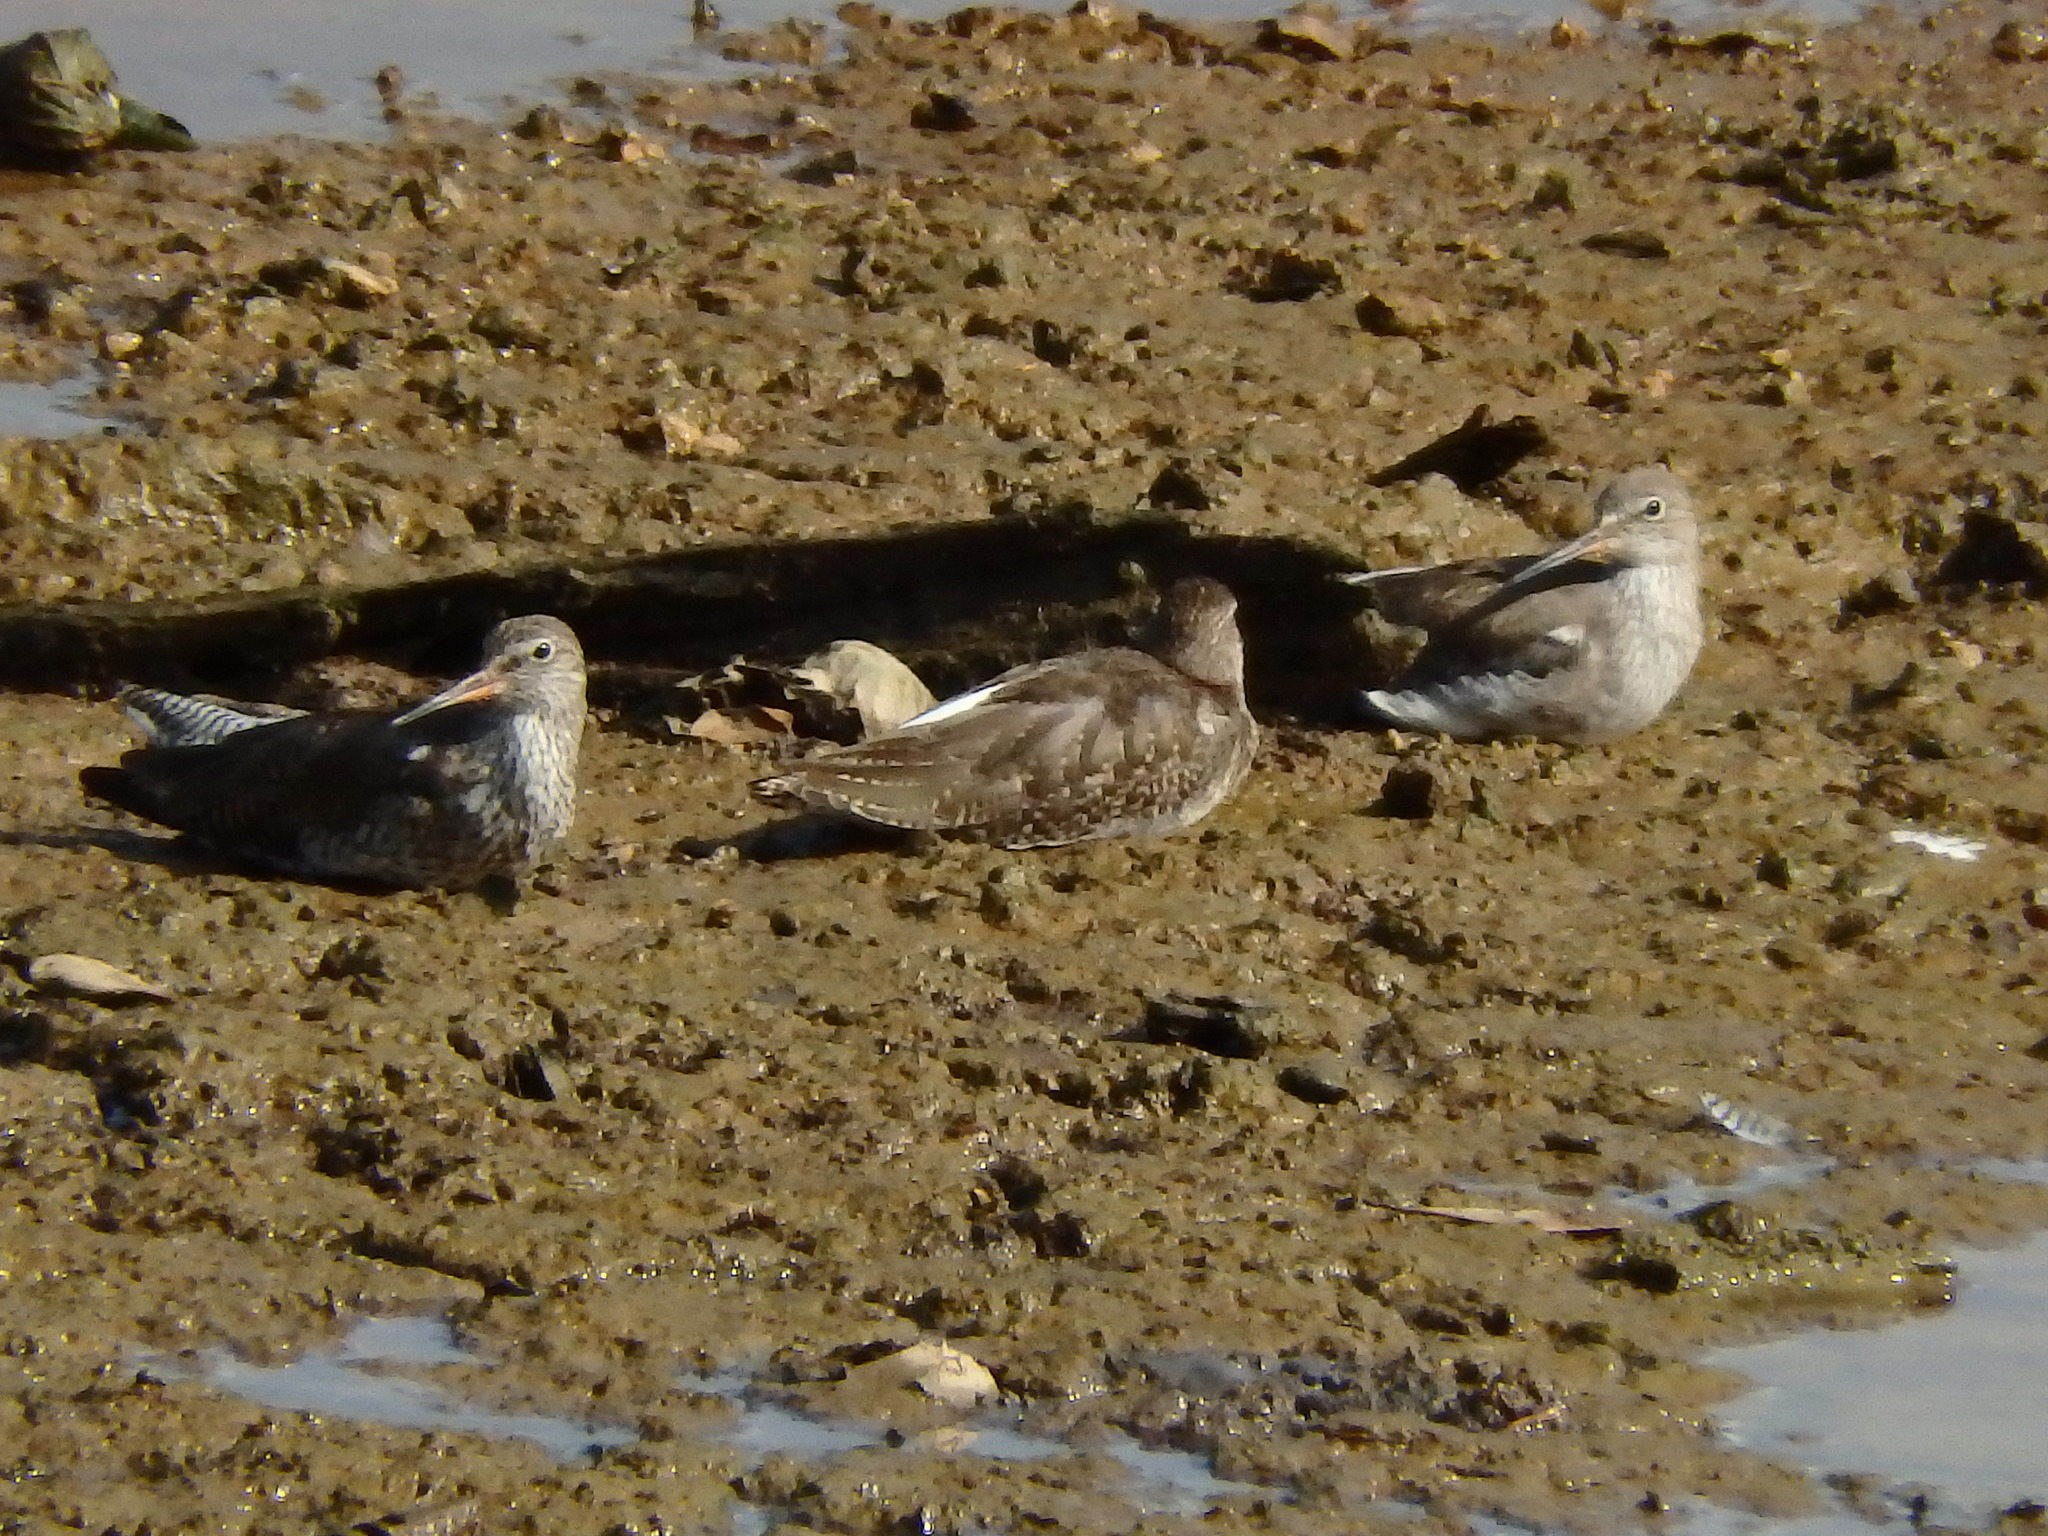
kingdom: Animalia
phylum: Chordata
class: Aves
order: Charadriiformes
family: Scolopacidae
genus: Tringa
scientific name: Tringa totanus
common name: Common redshank
